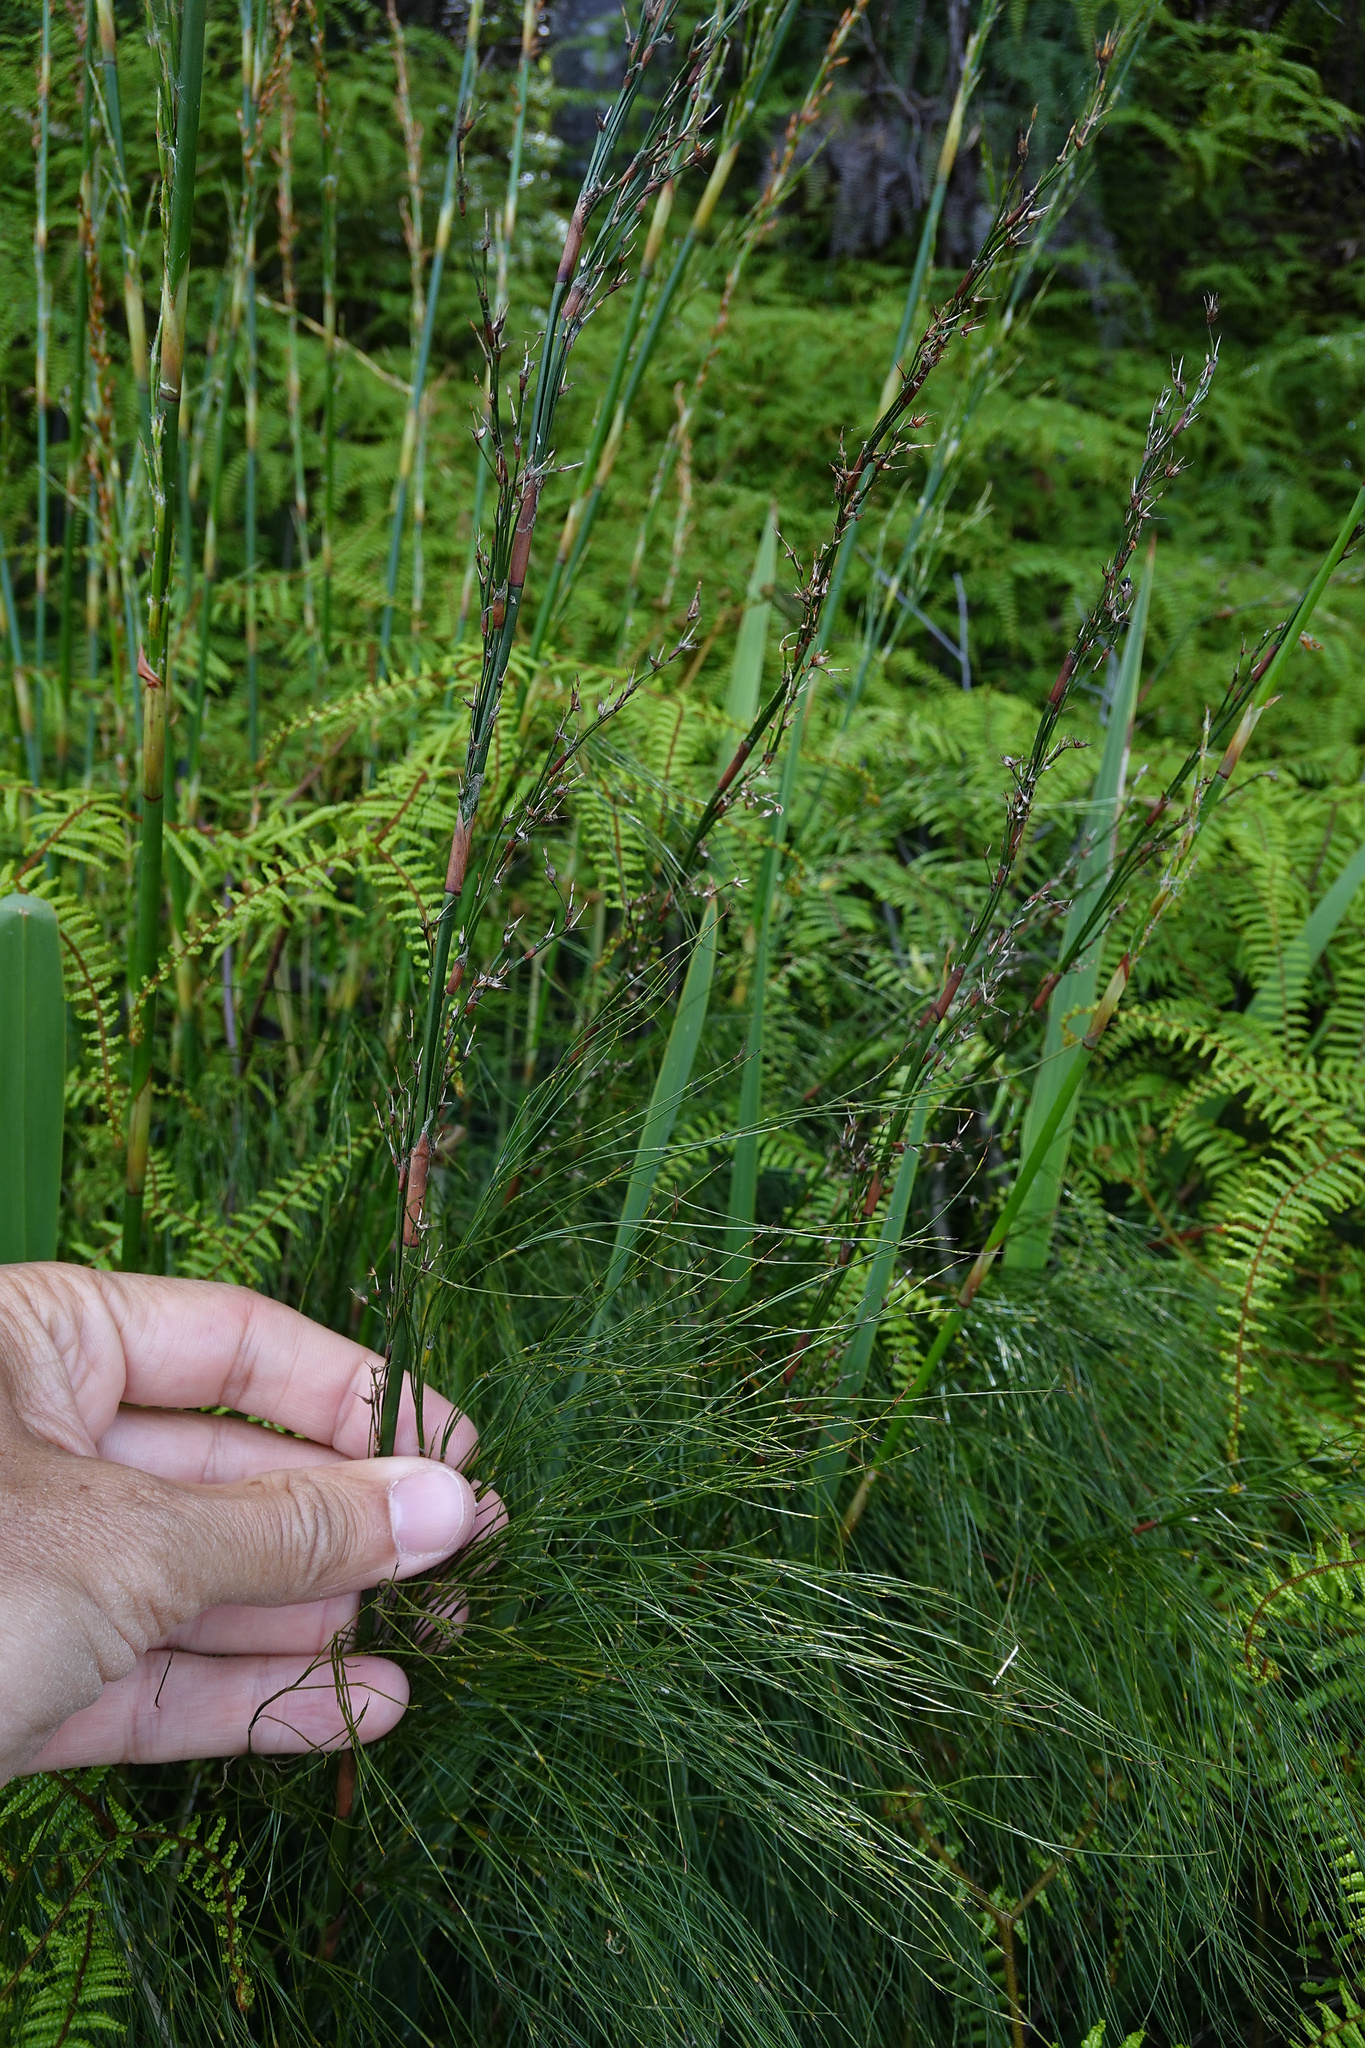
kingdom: Plantae
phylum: Tracheophyta
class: Liliopsida
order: Poales
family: Restionaceae
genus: Baloskion
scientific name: Baloskion tetraphyllum
